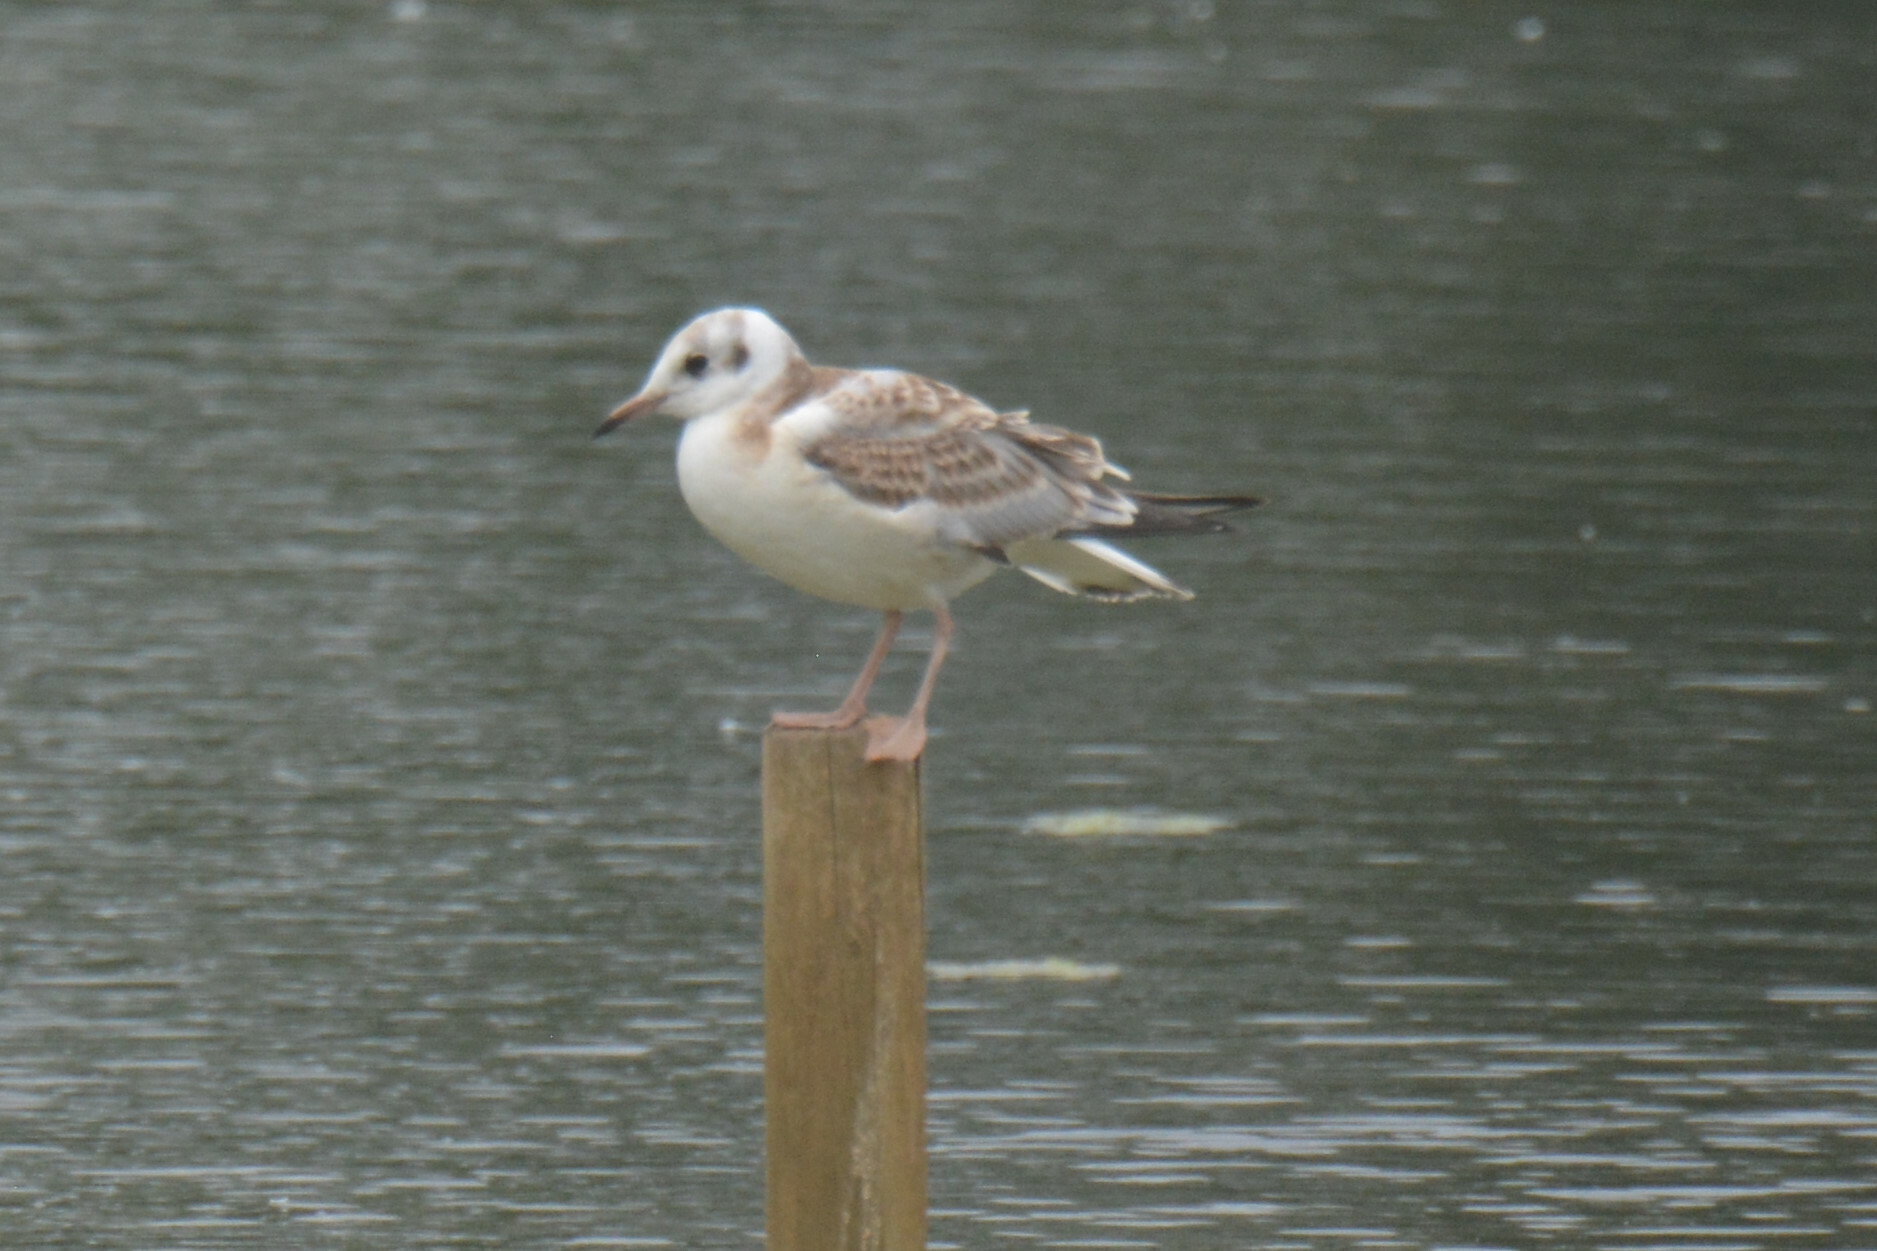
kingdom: Animalia
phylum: Chordata
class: Aves
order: Charadriiformes
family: Laridae
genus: Chroicocephalus
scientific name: Chroicocephalus ridibundus
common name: Black-headed gull
